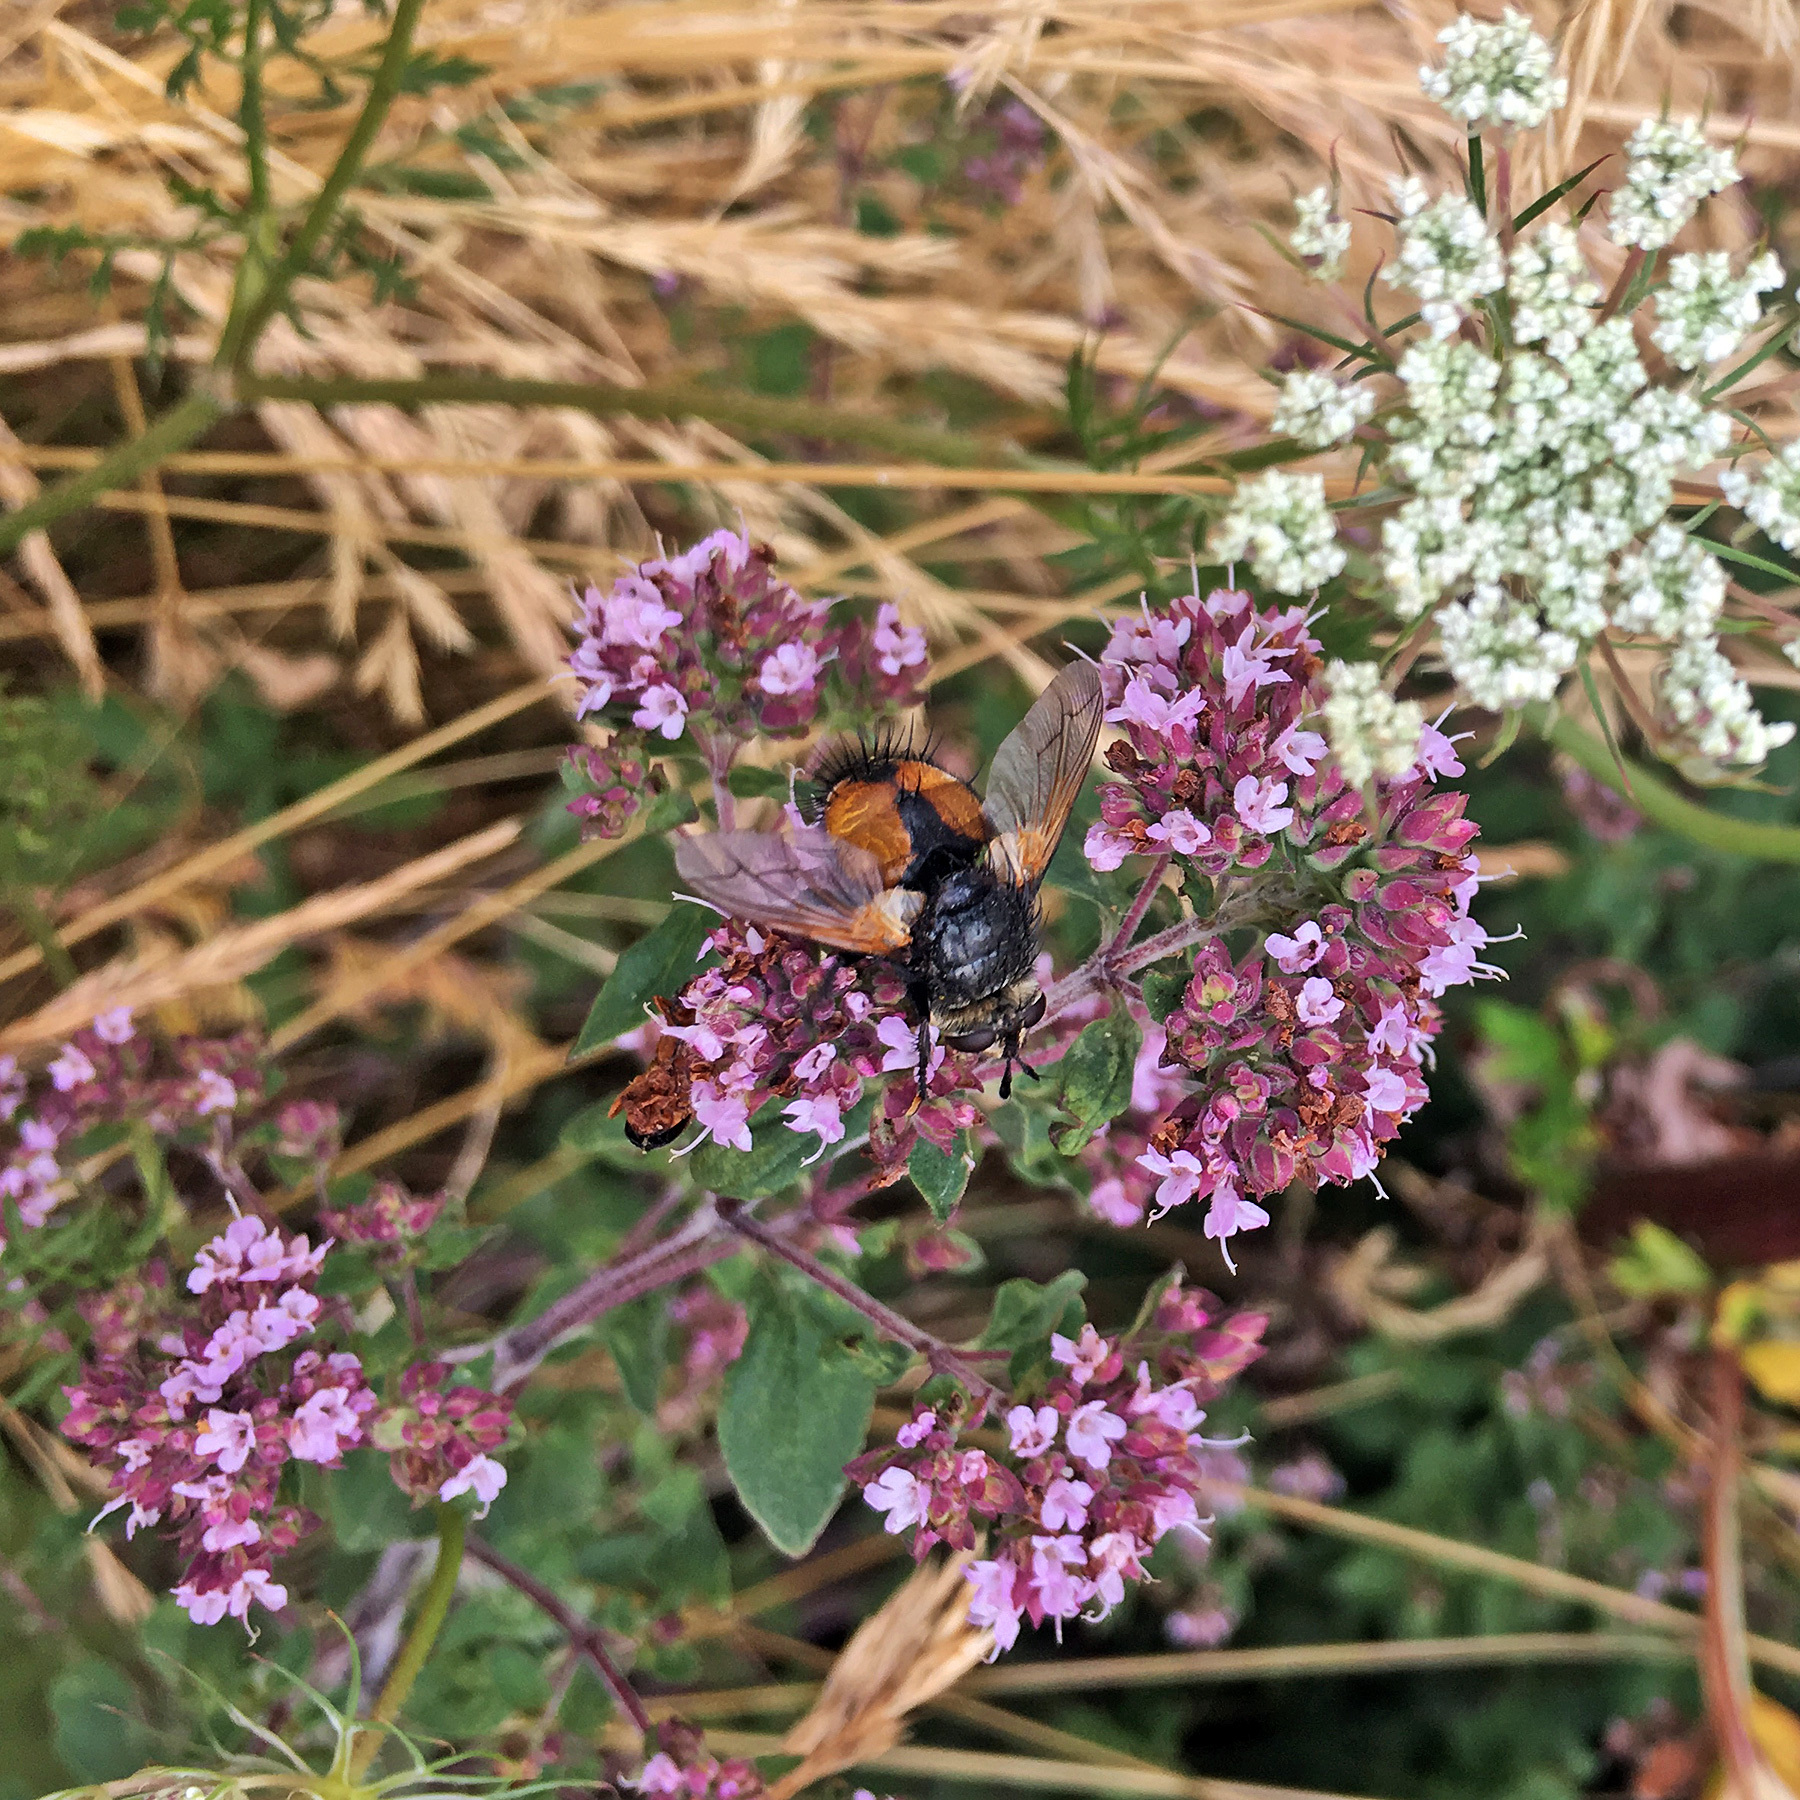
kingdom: Animalia
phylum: Arthropoda
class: Insecta
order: Diptera
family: Tachinidae
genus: Nowickia
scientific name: Nowickia ferox
